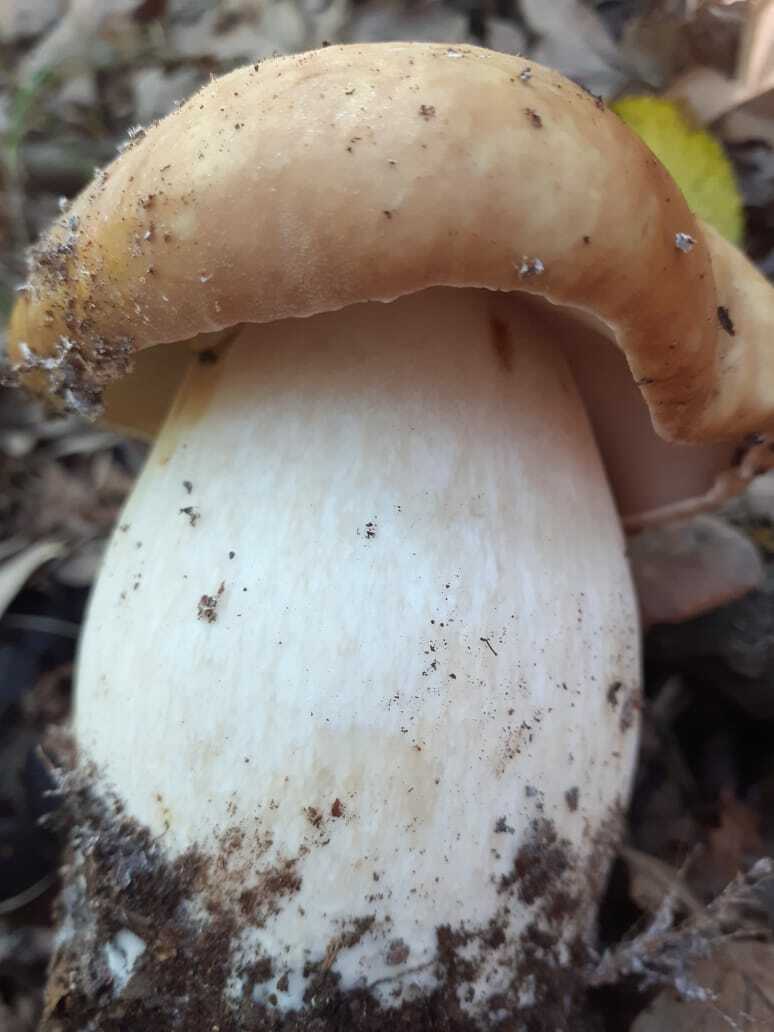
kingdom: Fungi
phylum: Basidiomycota
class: Agaricomycetes
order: Boletales
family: Boletaceae
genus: Boletus
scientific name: Boletus edulis
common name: Cep
